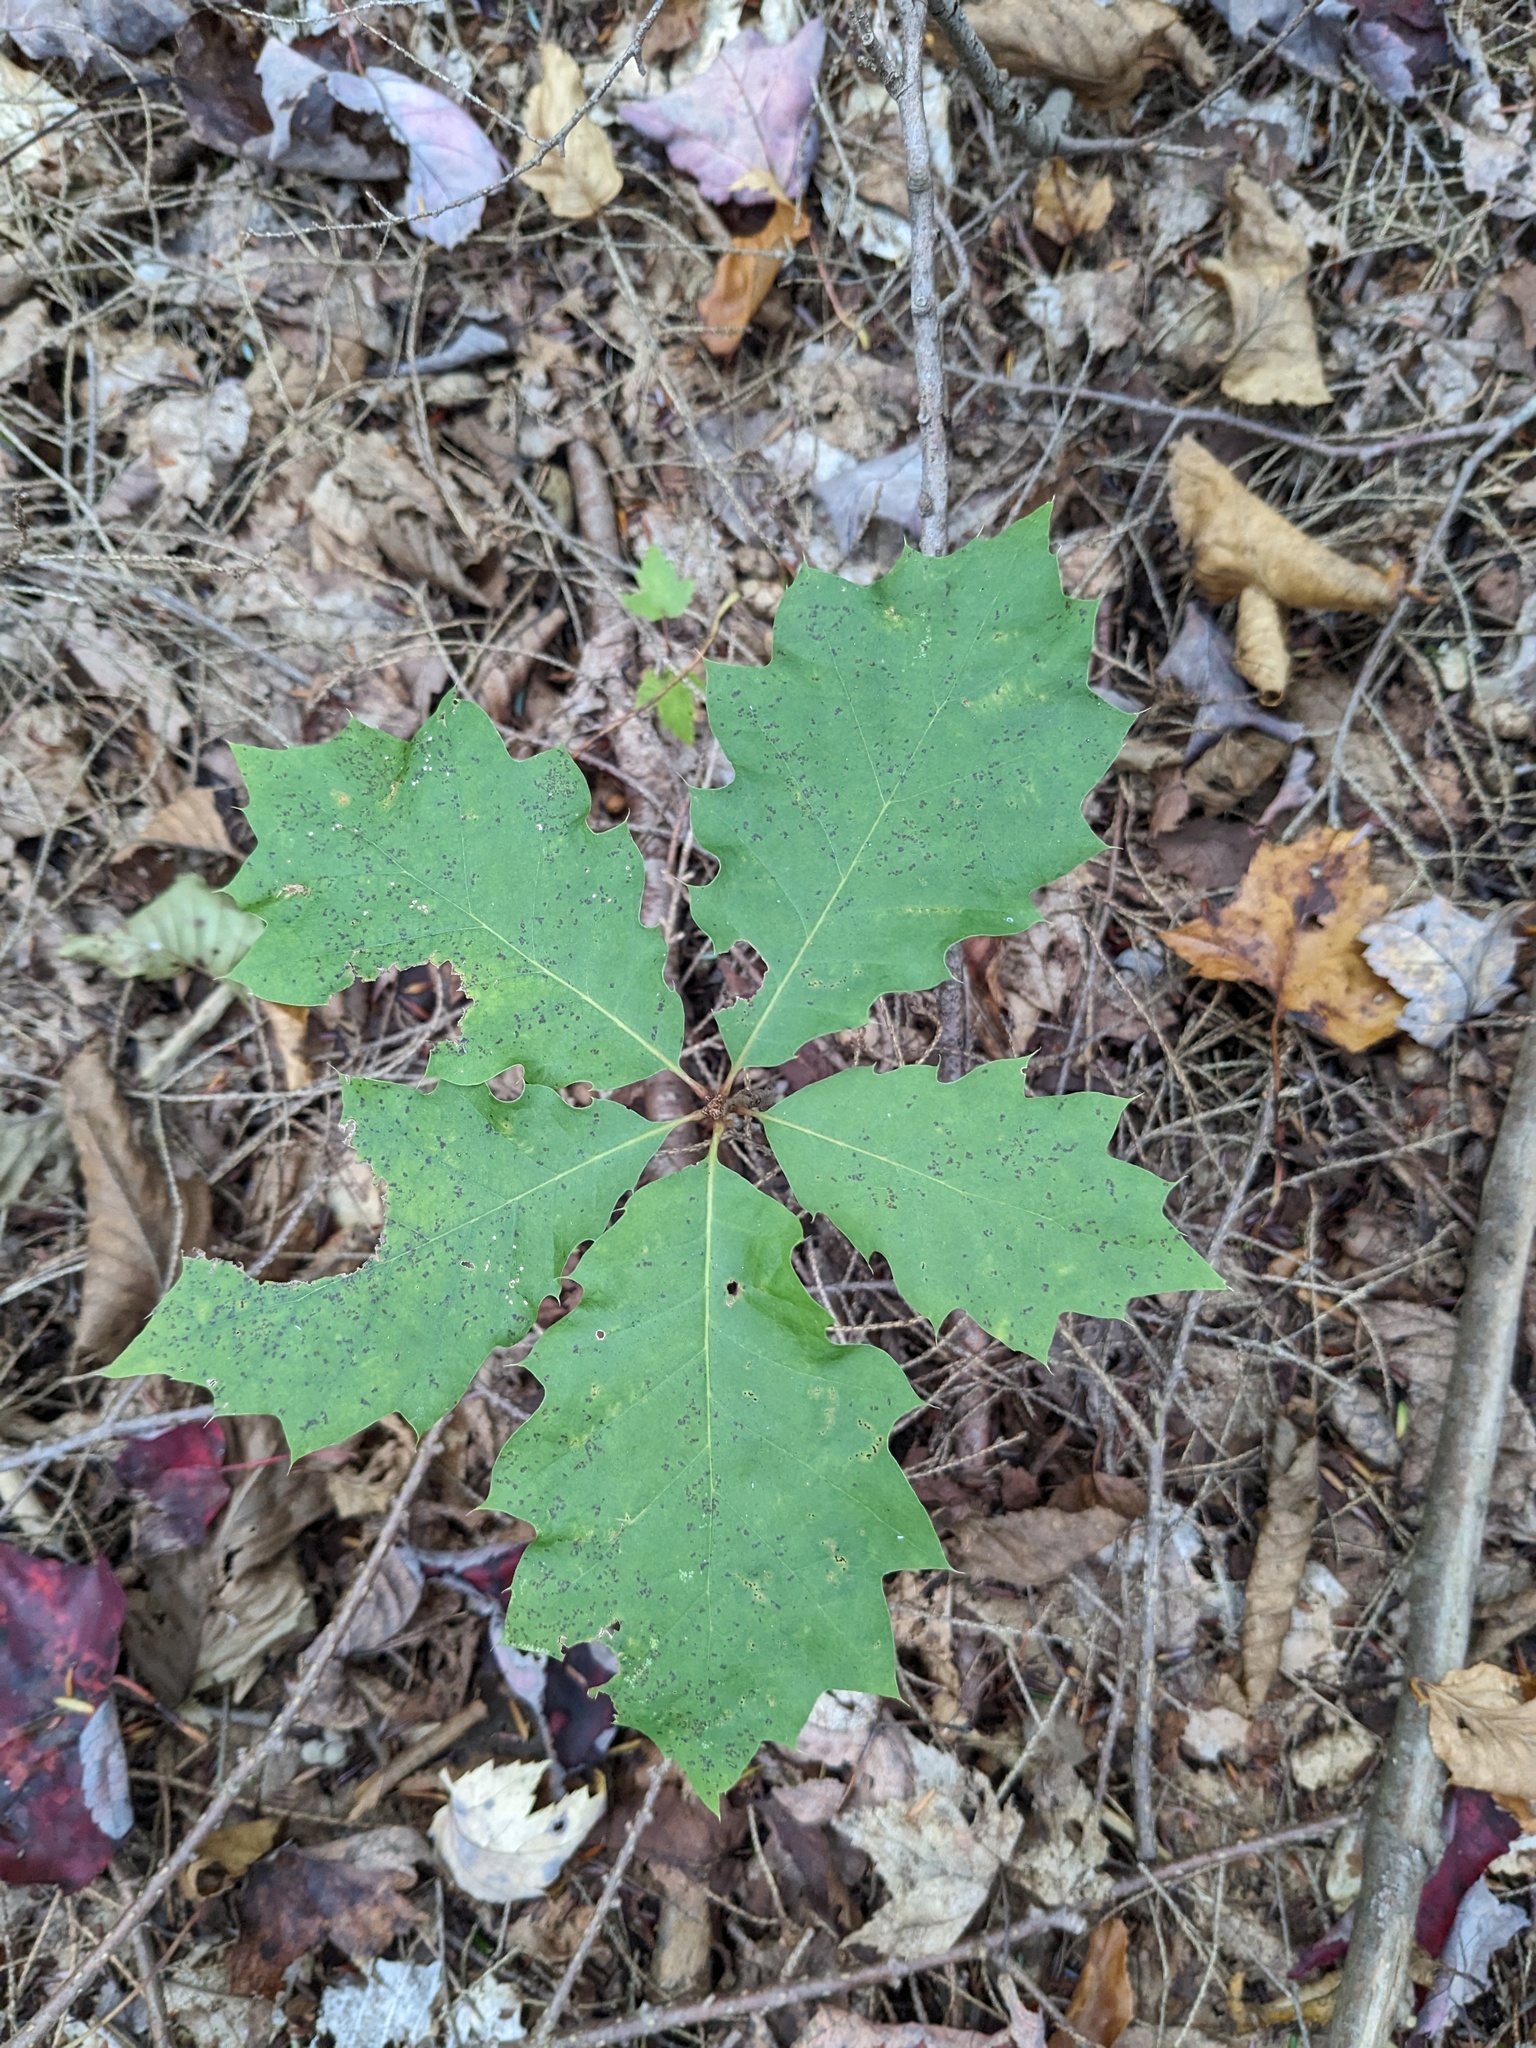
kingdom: Plantae
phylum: Tracheophyta
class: Magnoliopsida
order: Fagales
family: Fagaceae
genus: Quercus
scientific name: Quercus rubra
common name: Red oak
